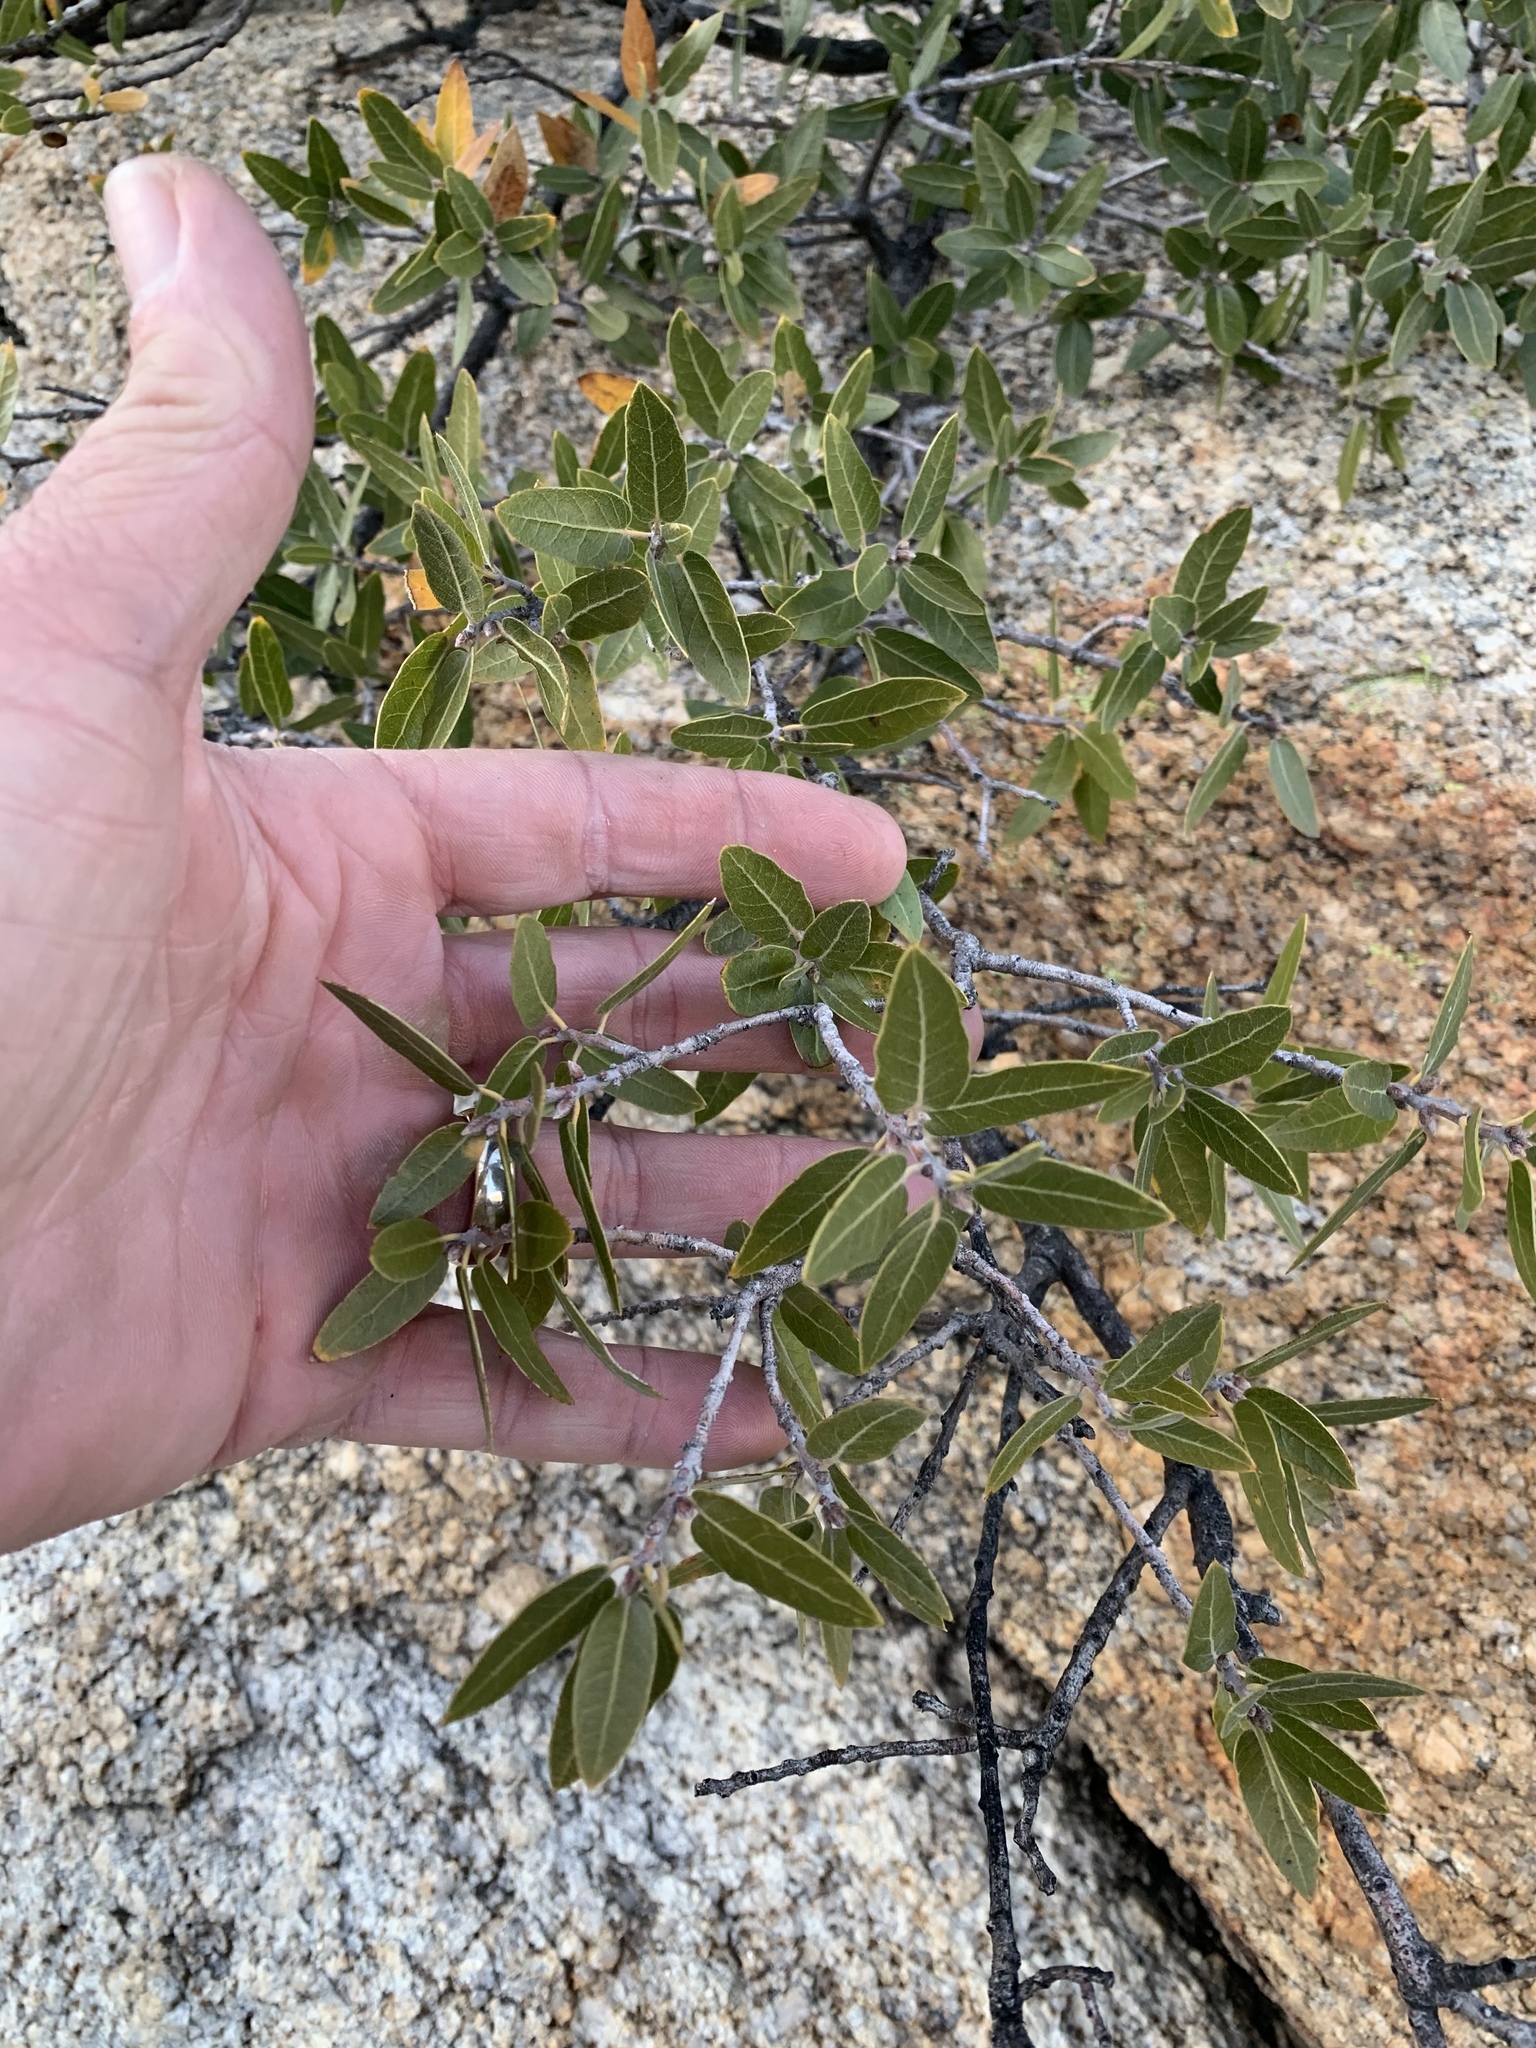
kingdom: Plantae
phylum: Tracheophyta
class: Magnoliopsida
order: Fagales
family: Fagaceae
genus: Quercus
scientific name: Quercus emoryi
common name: Emory oak
